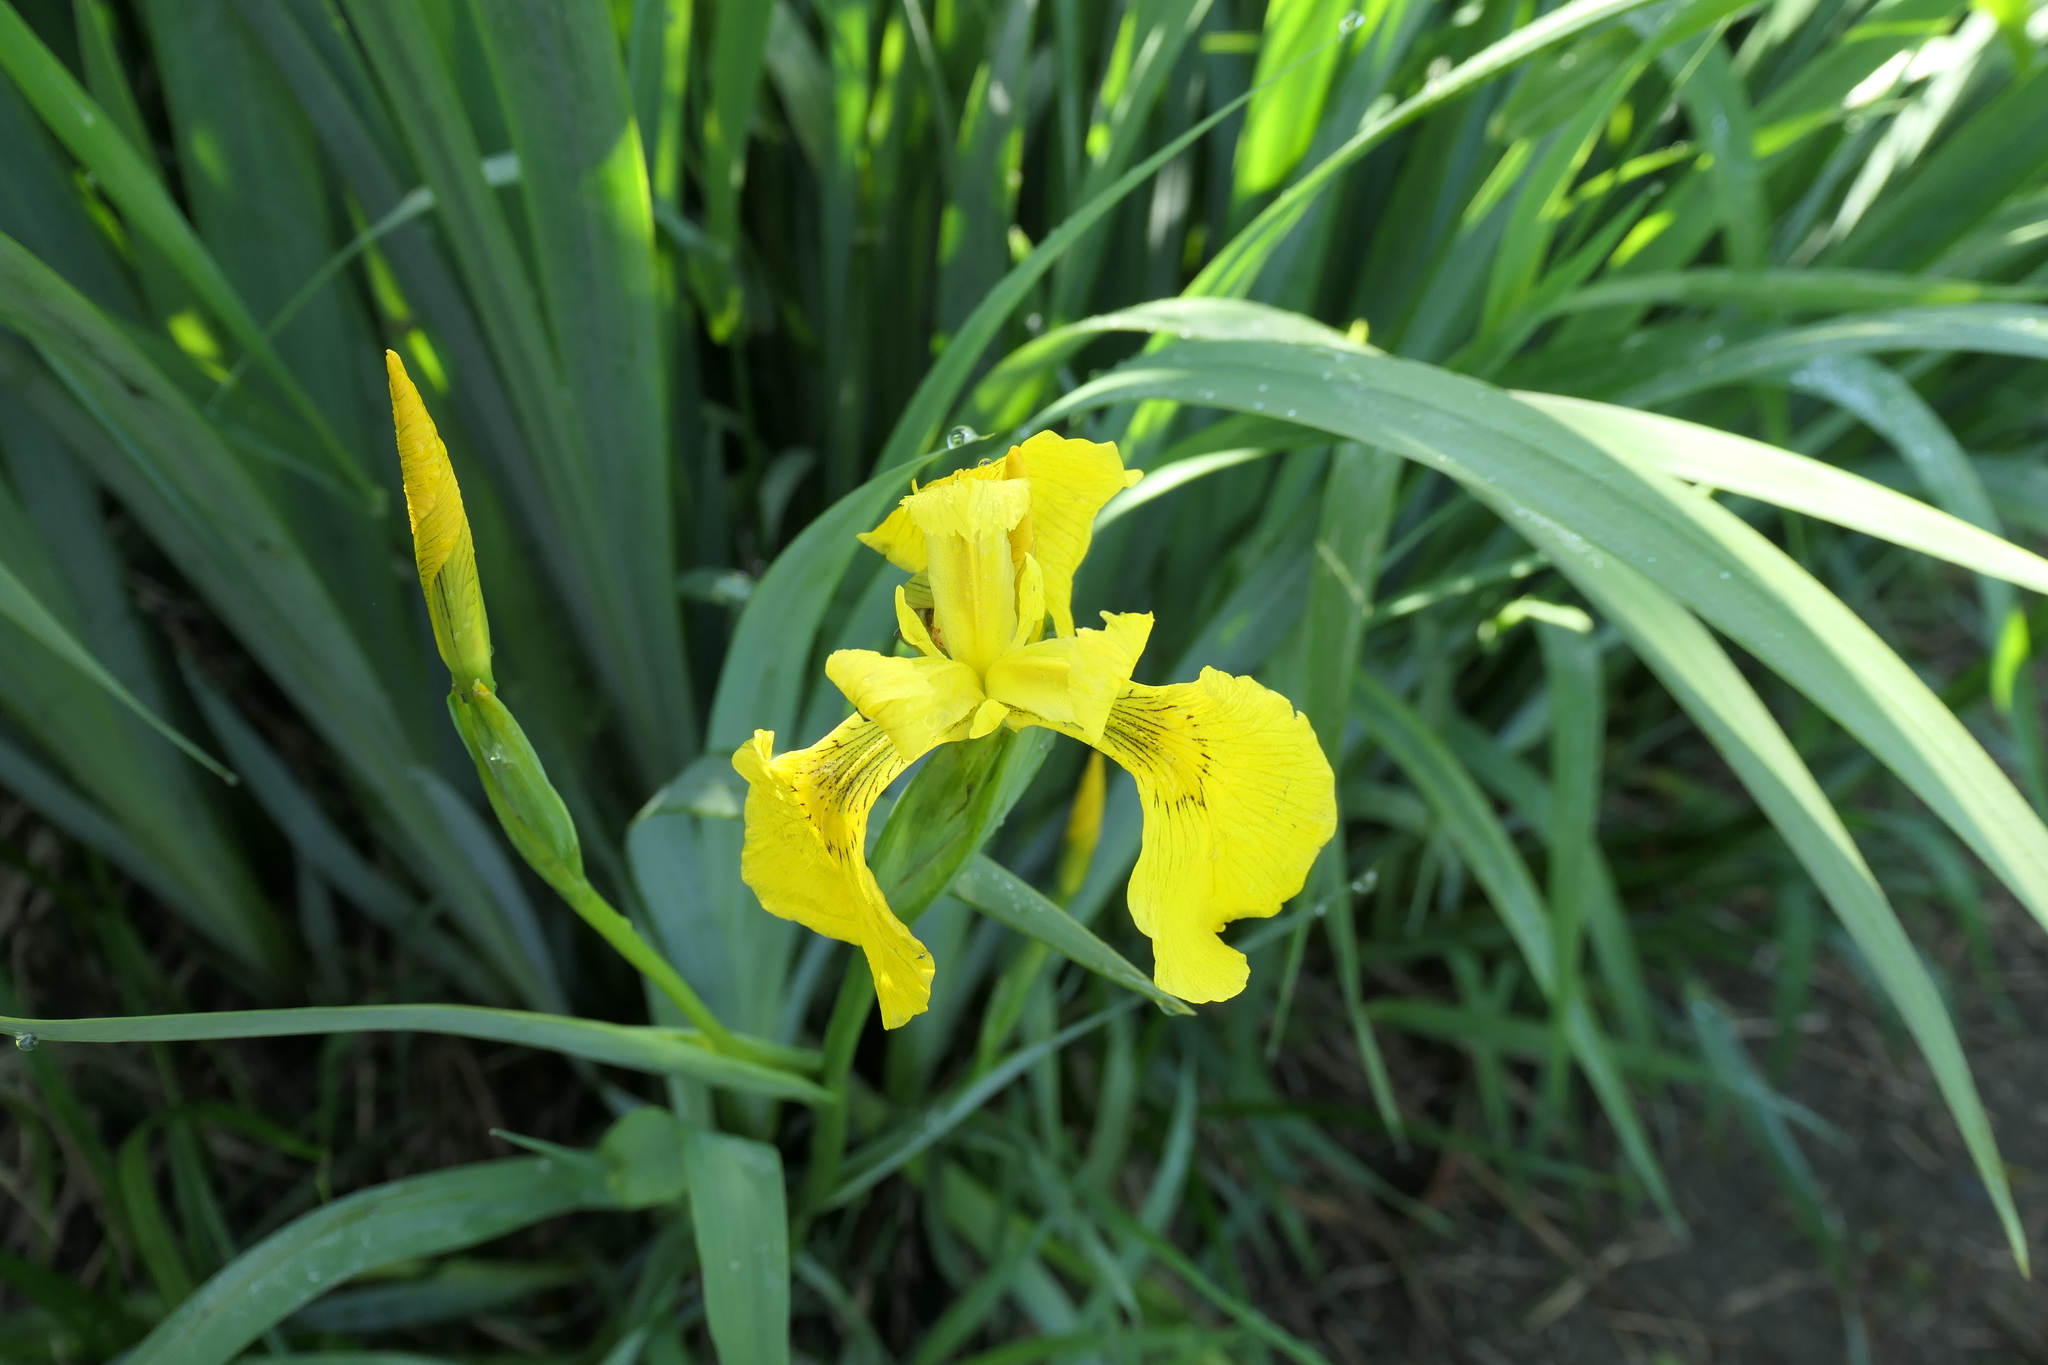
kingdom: Plantae
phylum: Tracheophyta
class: Liliopsida
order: Asparagales
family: Iridaceae
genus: Iris
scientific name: Iris pseudacorus
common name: Yellow flag
